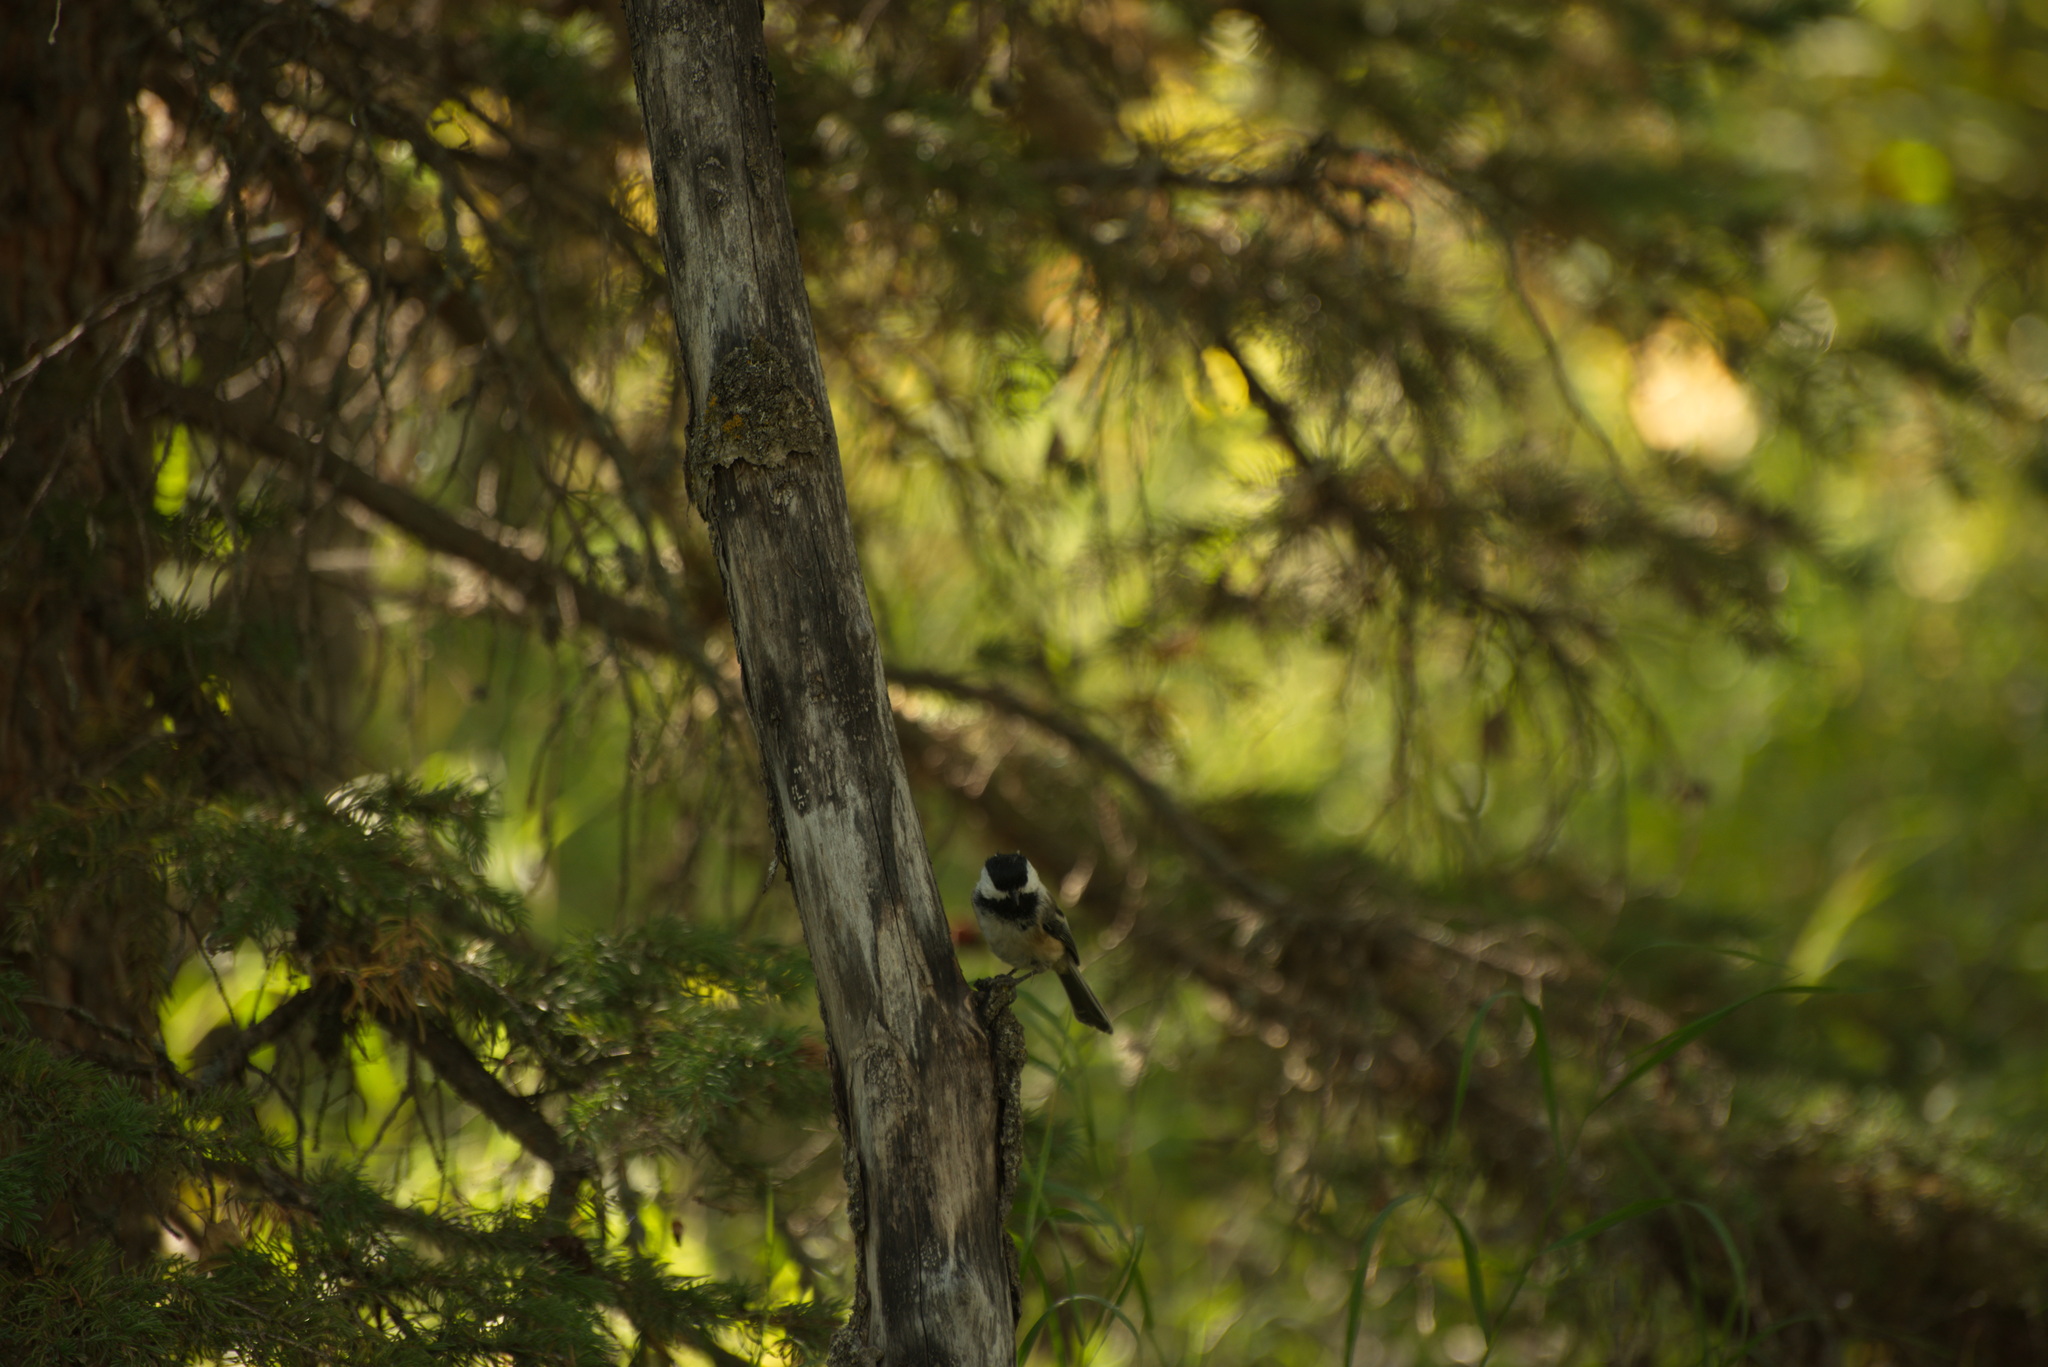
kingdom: Animalia
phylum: Chordata
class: Aves
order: Passeriformes
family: Paridae
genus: Poecile
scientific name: Poecile atricapillus
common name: Black-capped chickadee
